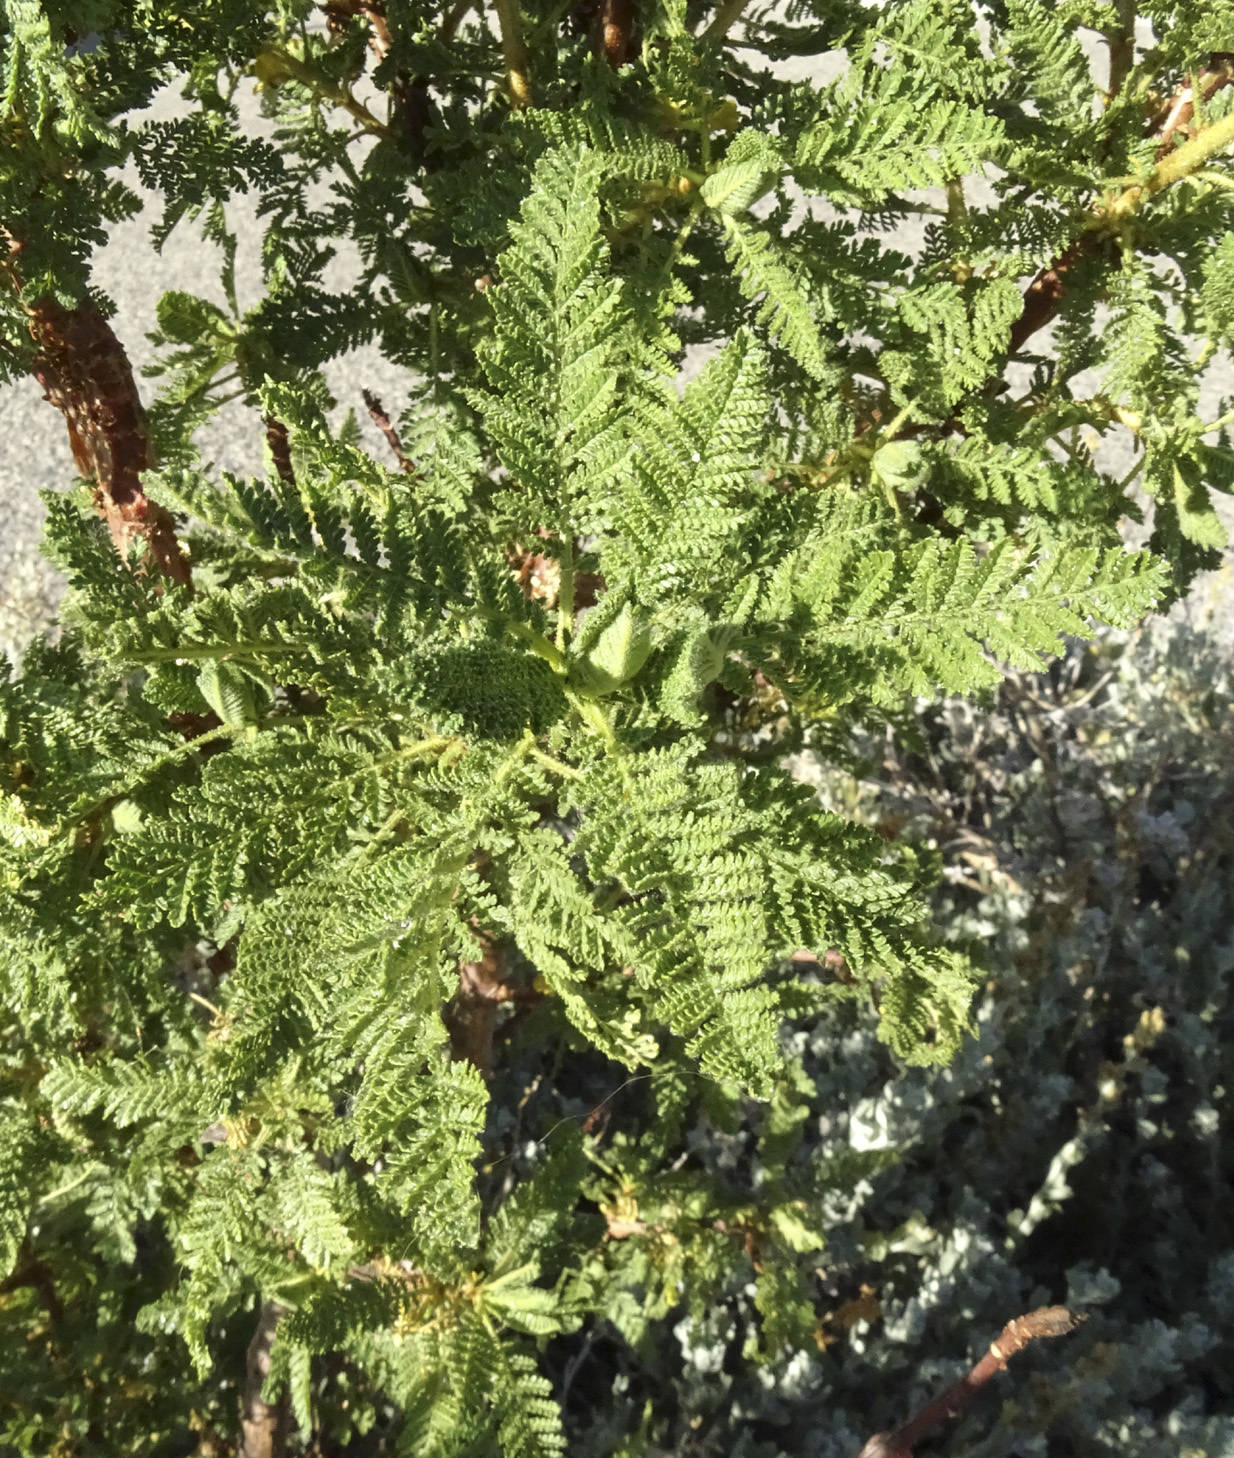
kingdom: Plantae
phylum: Tracheophyta
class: Magnoliopsida
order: Rosales
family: Rosaceae
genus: Chamaebatiaria
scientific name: Chamaebatiaria millefolium
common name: Fernbush
